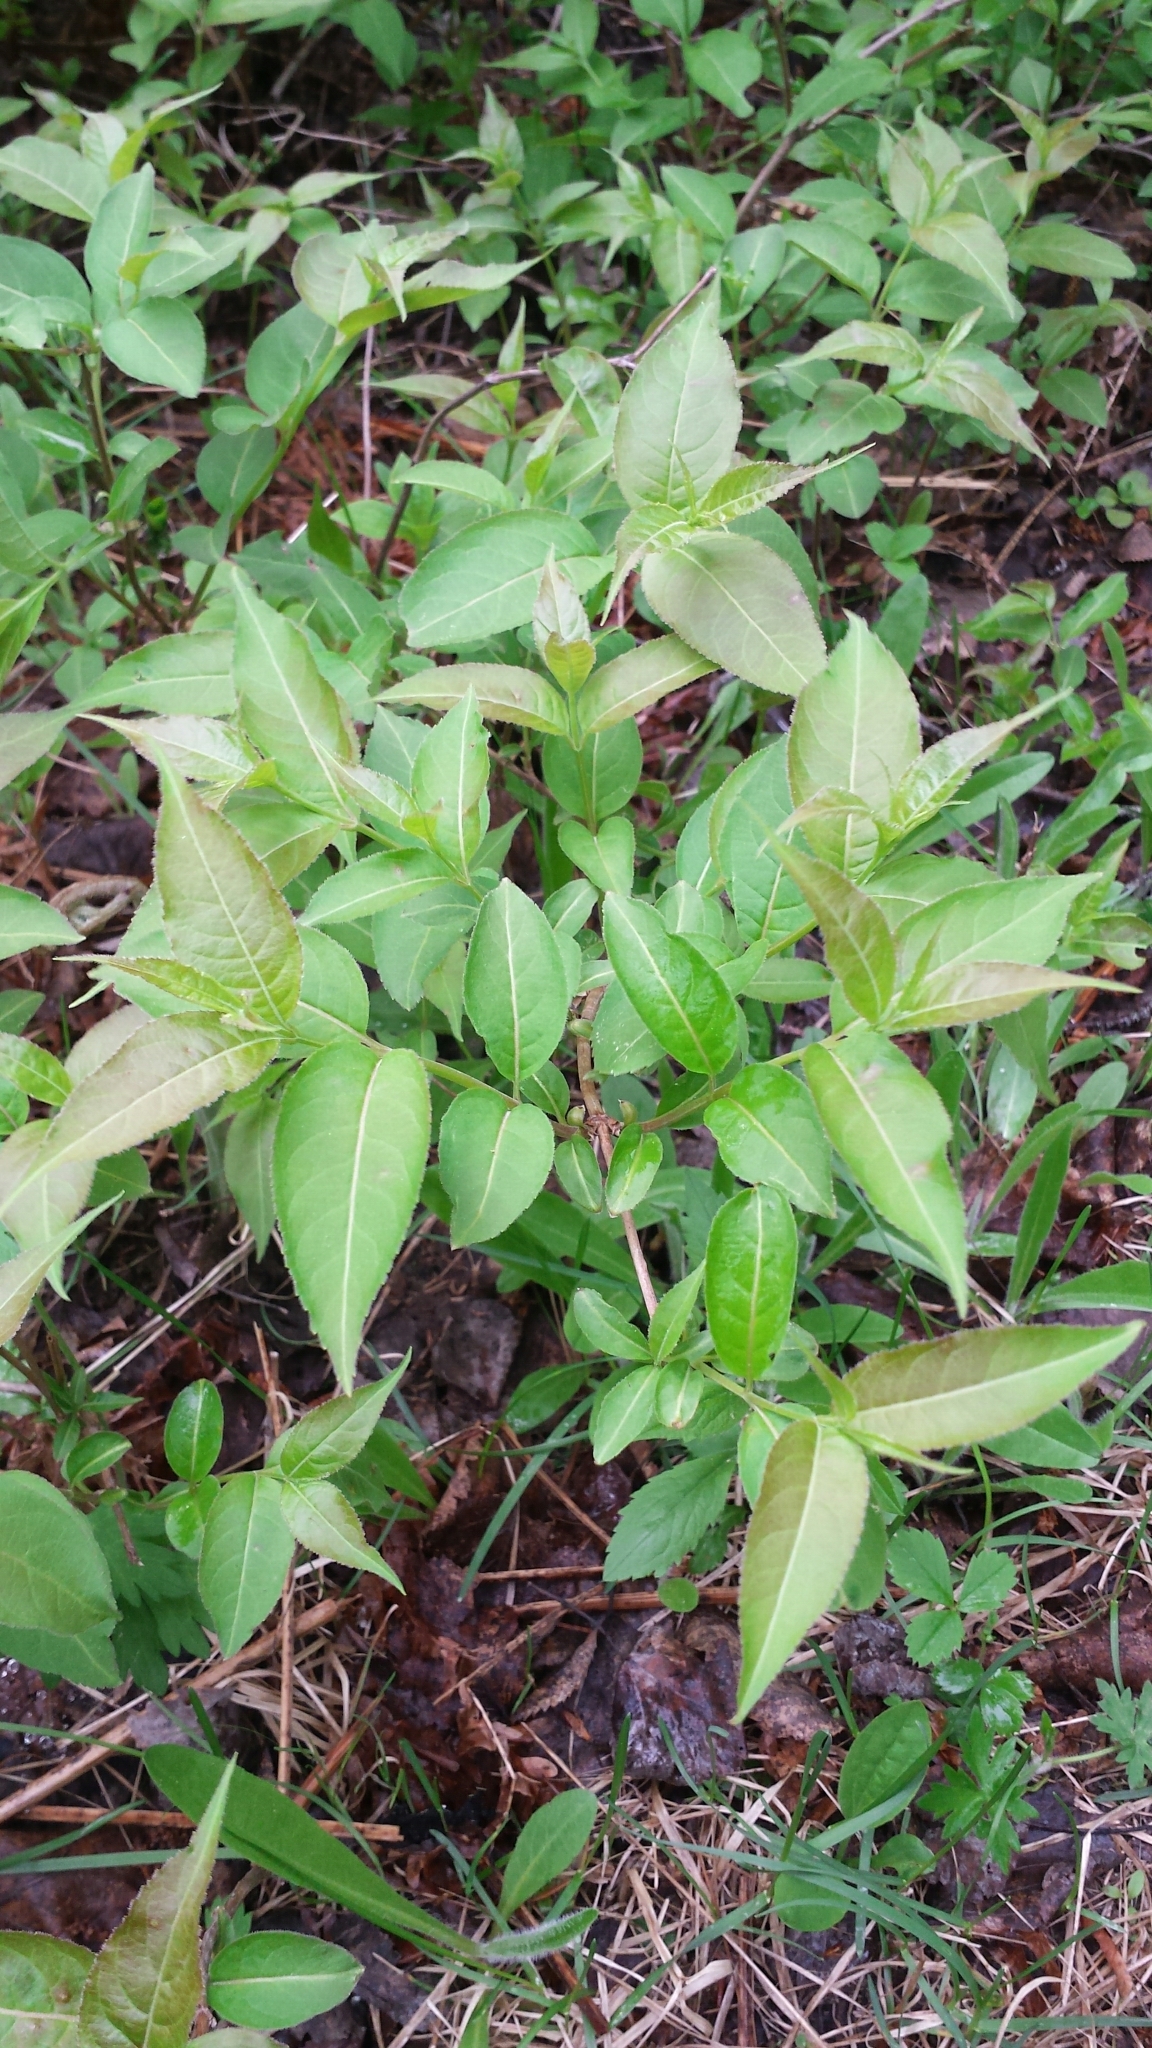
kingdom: Plantae
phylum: Tracheophyta
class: Magnoliopsida
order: Dipsacales
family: Caprifoliaceae
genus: Diervilla
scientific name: Diervilla lonicera
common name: Bush-honeysuckle
